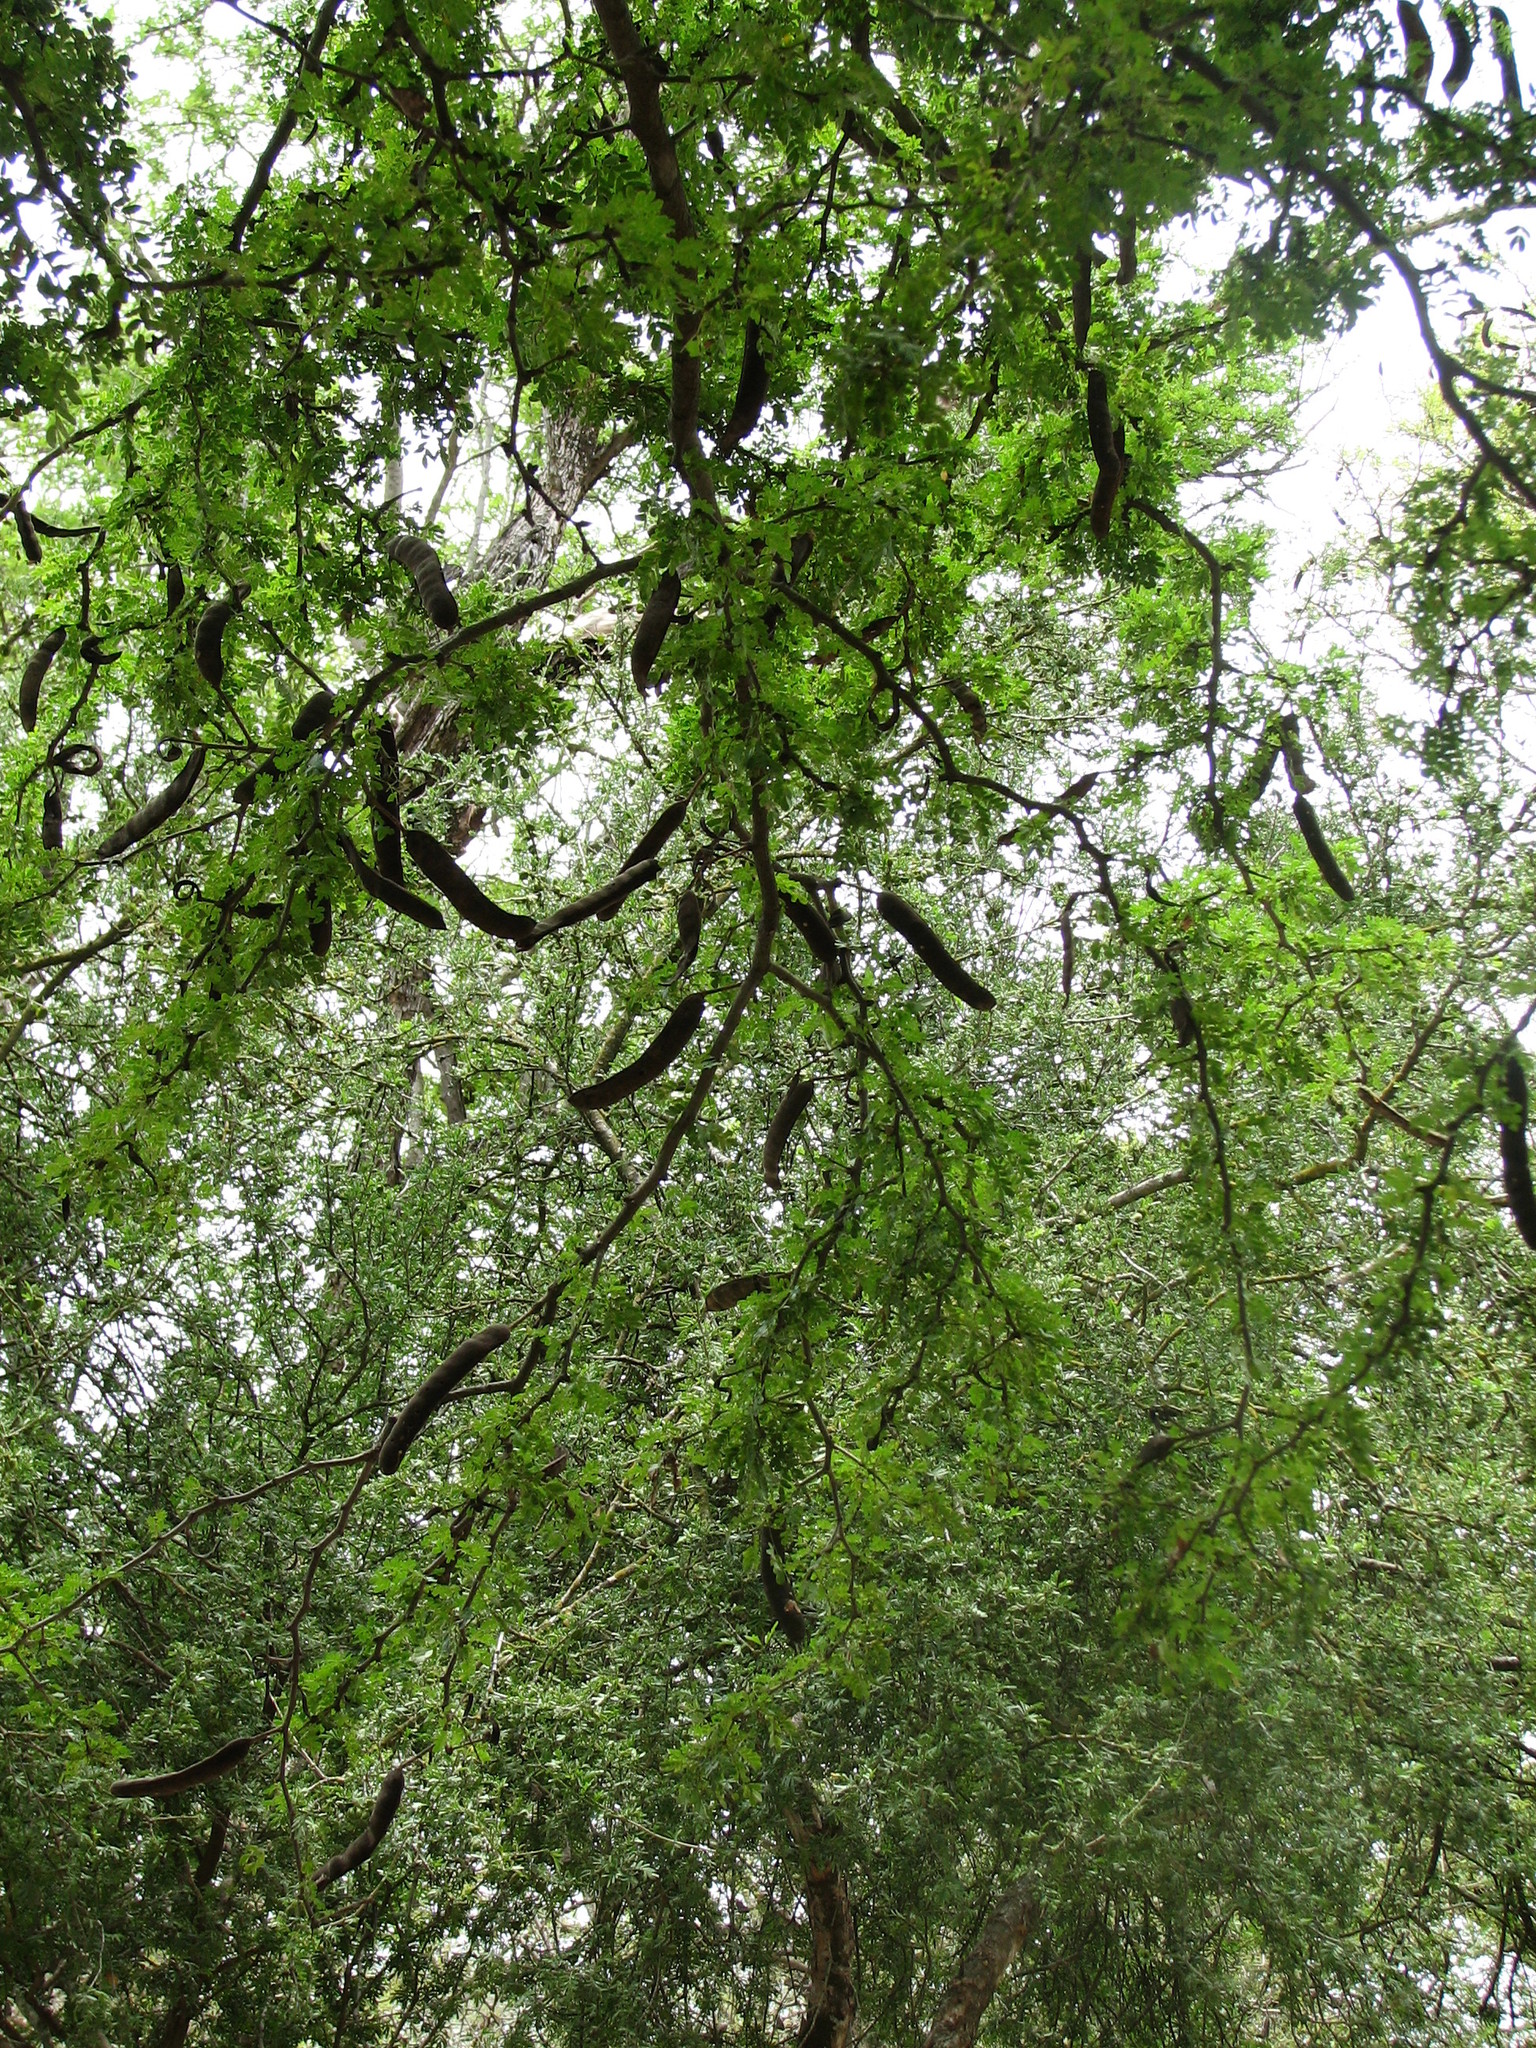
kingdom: Plantae
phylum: Tracheophyta
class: Magnoliopsida
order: Fabales
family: Fabaceae
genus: Ebenopsis
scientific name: Ebenopsis ebano
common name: Ebony blackbead
